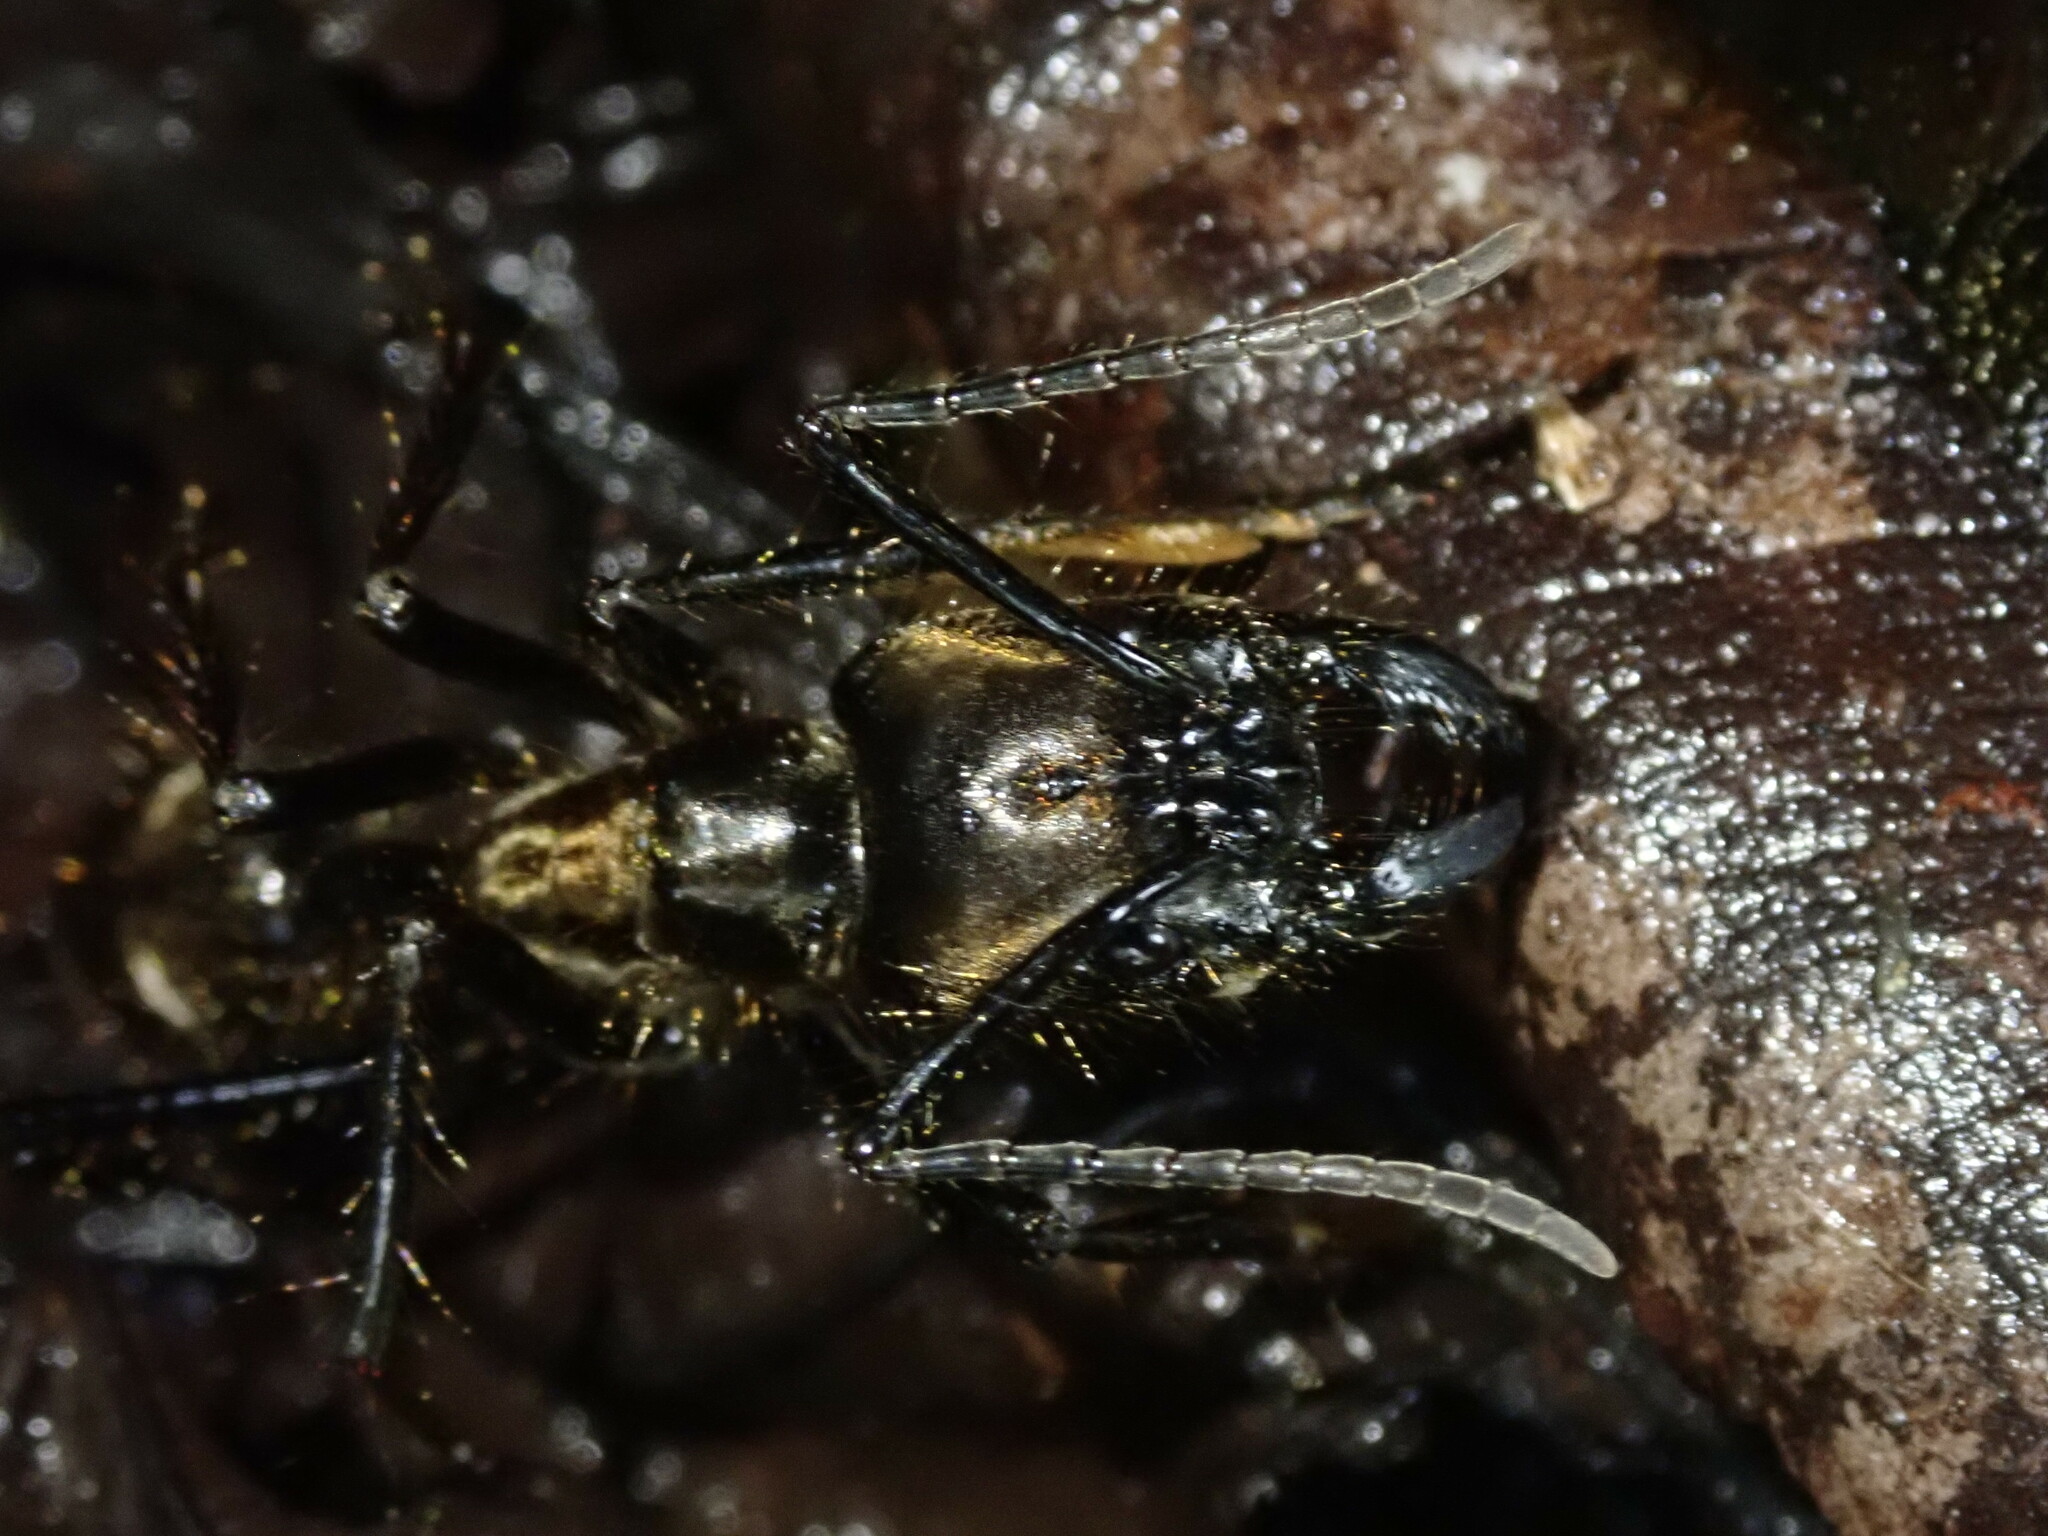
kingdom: Animalia
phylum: Arthropoda
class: Insecta
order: Hymenoptera
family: Formicidae
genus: Dinoponera
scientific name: Dinoponera longipes
